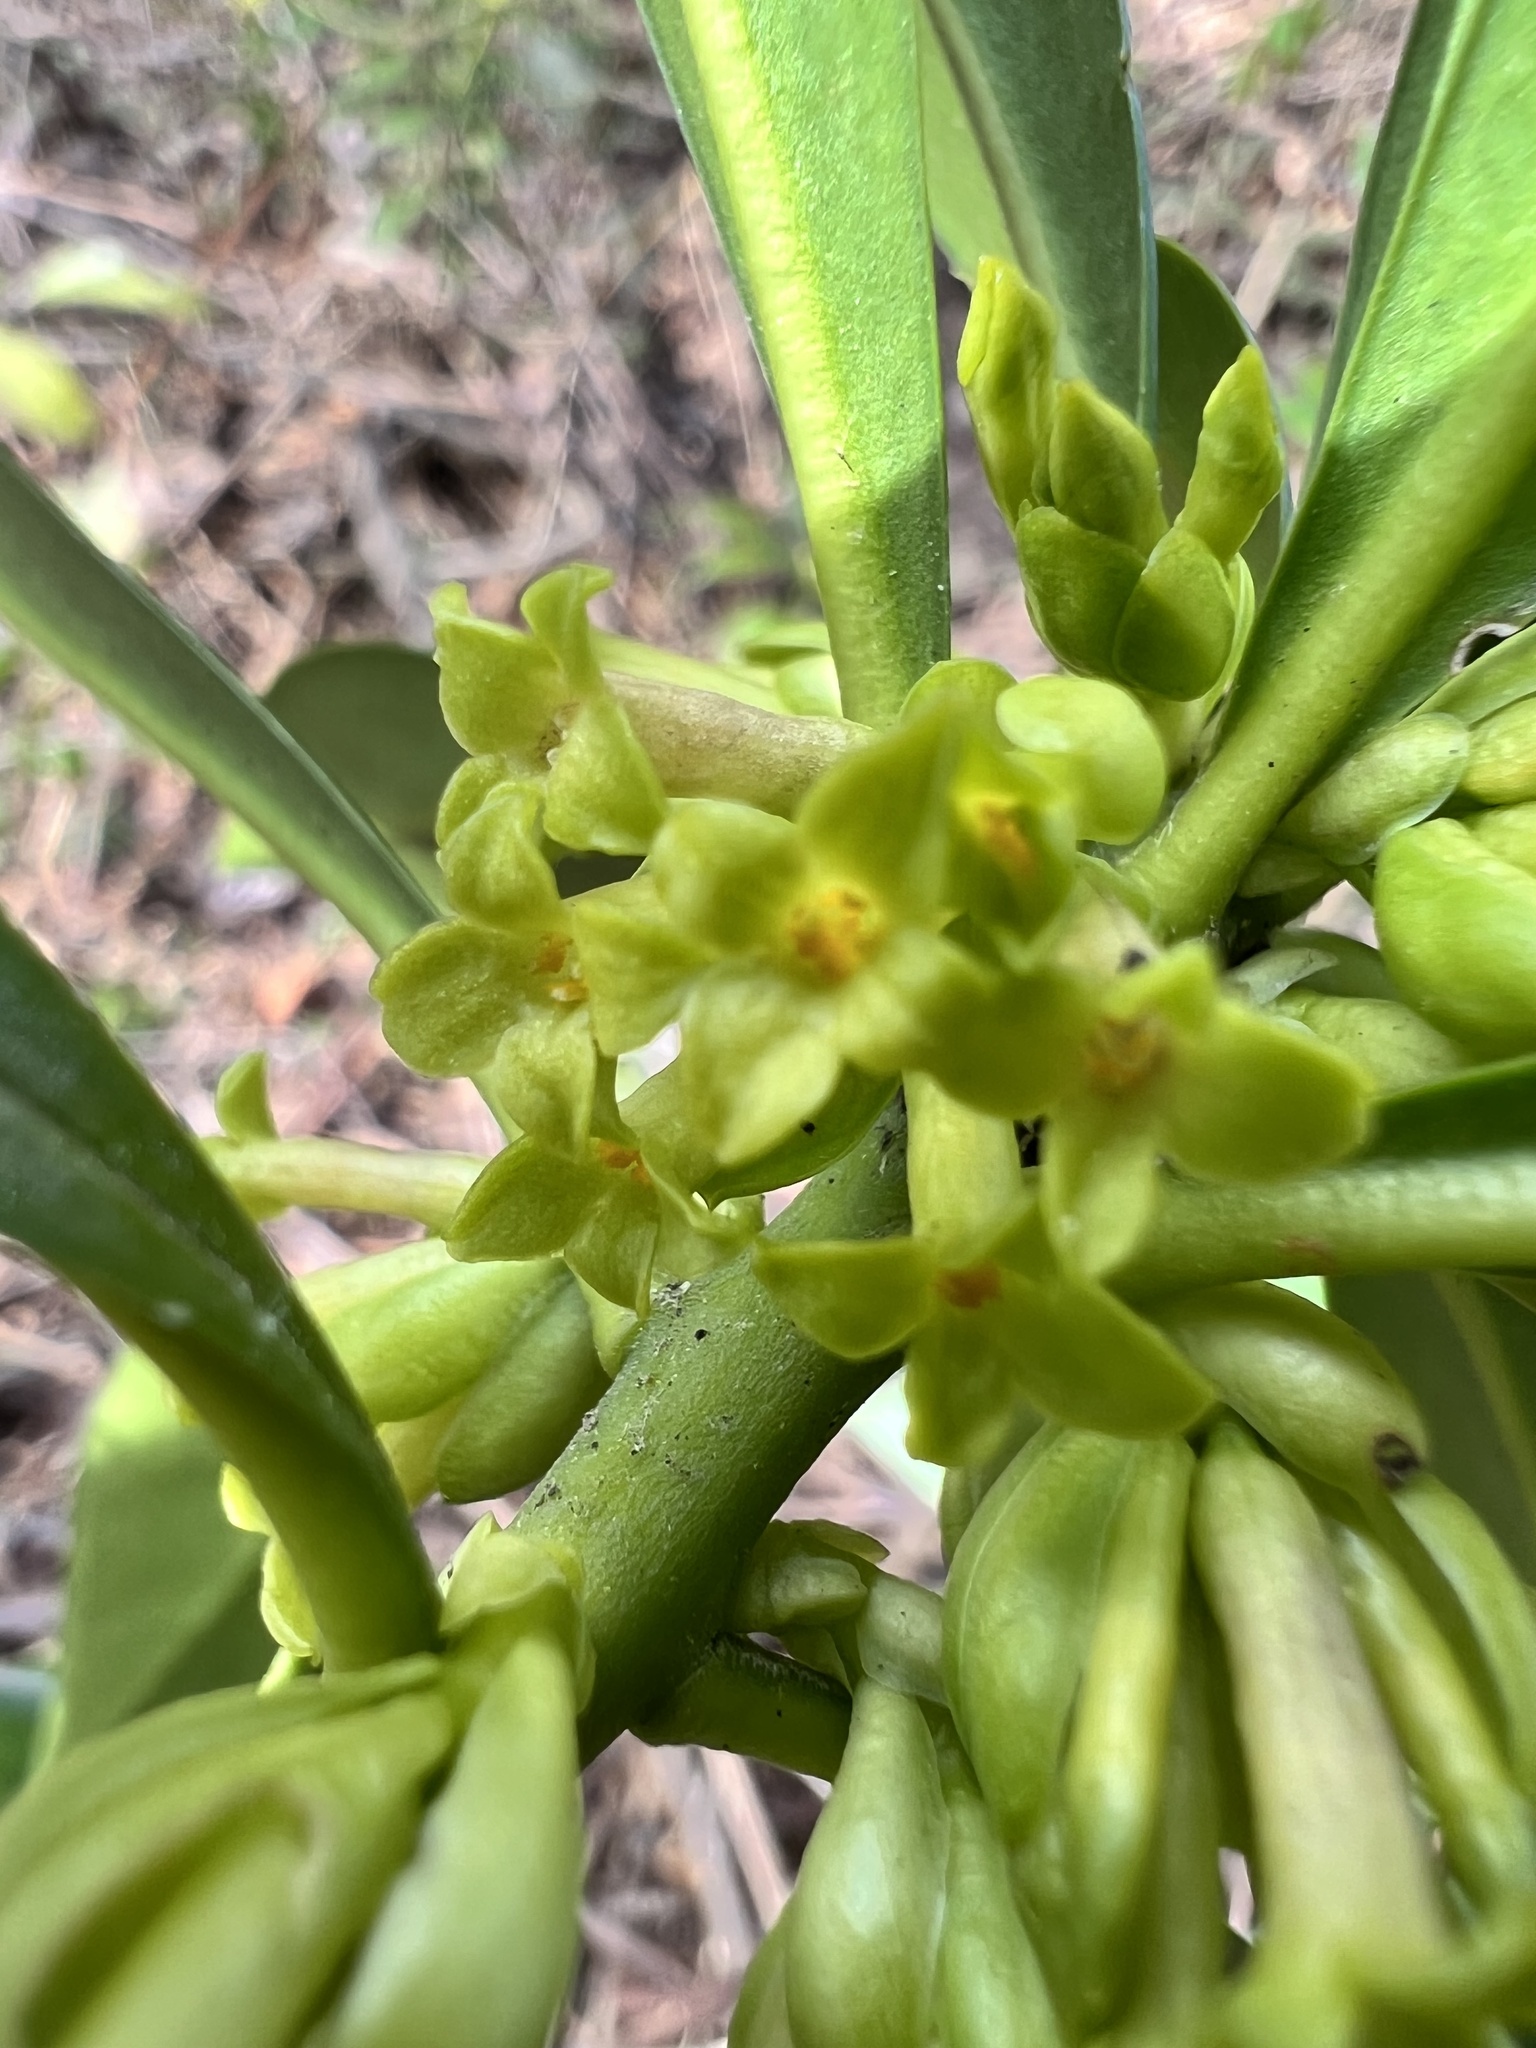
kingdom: Plantae
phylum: Tracheophyta
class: Magnoliopsida
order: Malvales
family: Thymelaeaceae
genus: Daphne
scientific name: Daphne laureola
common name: Spurge-laurel
